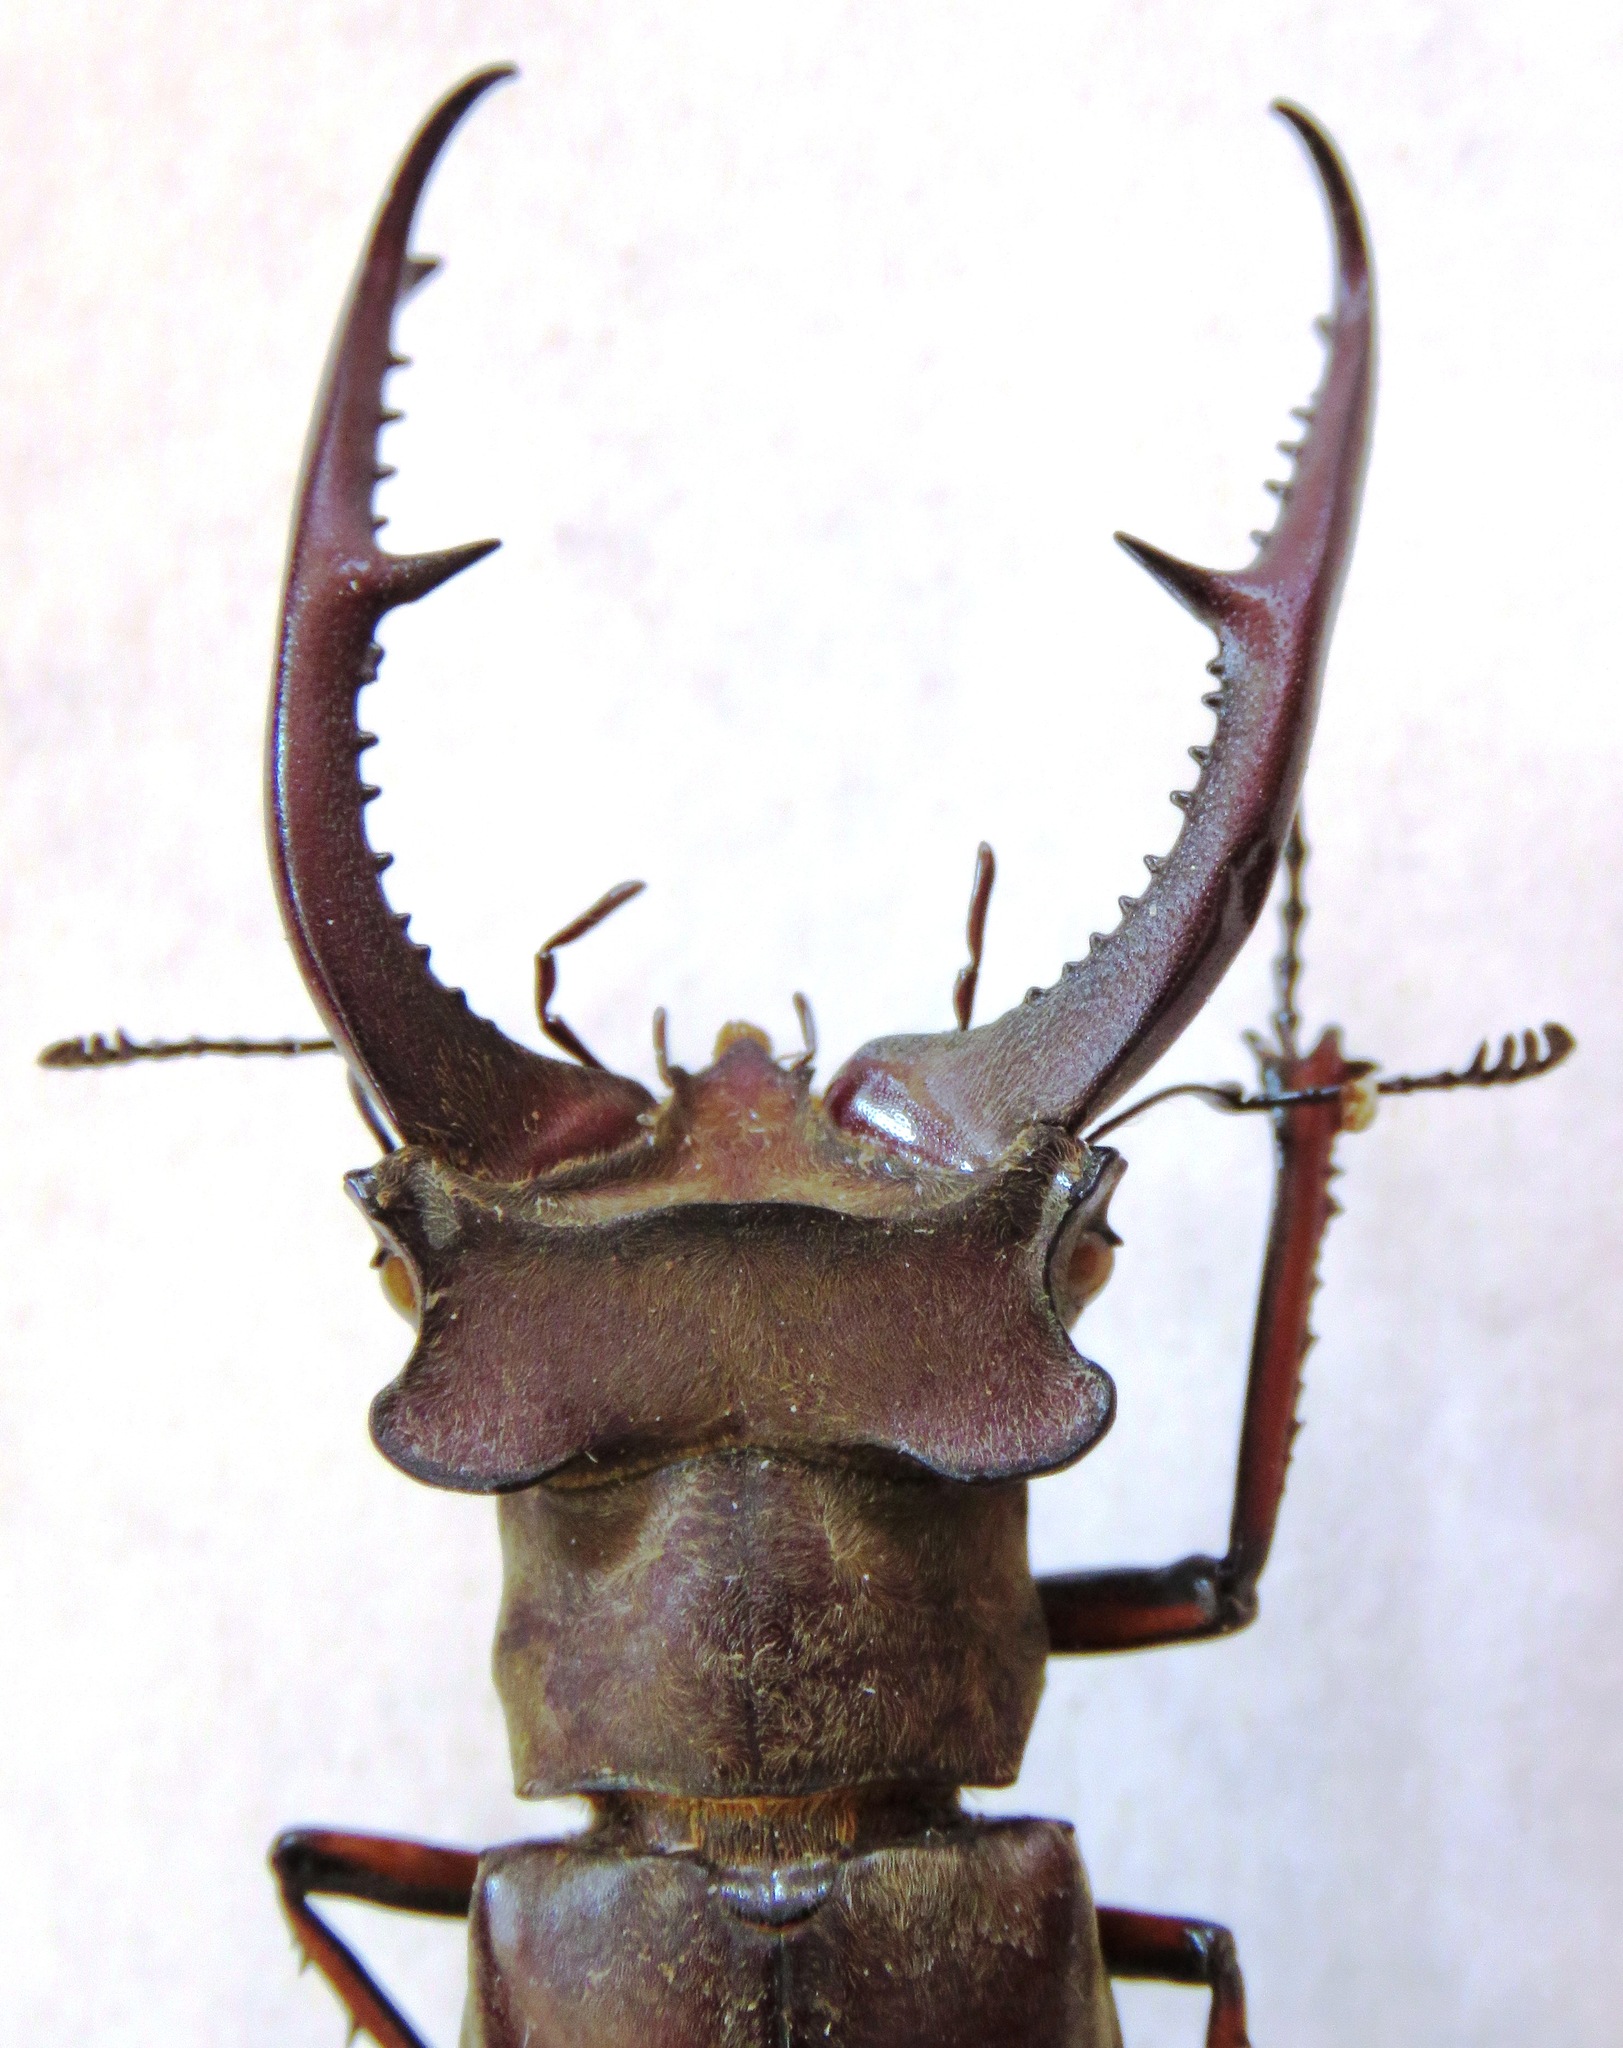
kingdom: Animalia
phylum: Arthropoda
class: Insecta
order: Coleoptera
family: Lucanidae
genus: Lucanus
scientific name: Lucanus kraatzi
